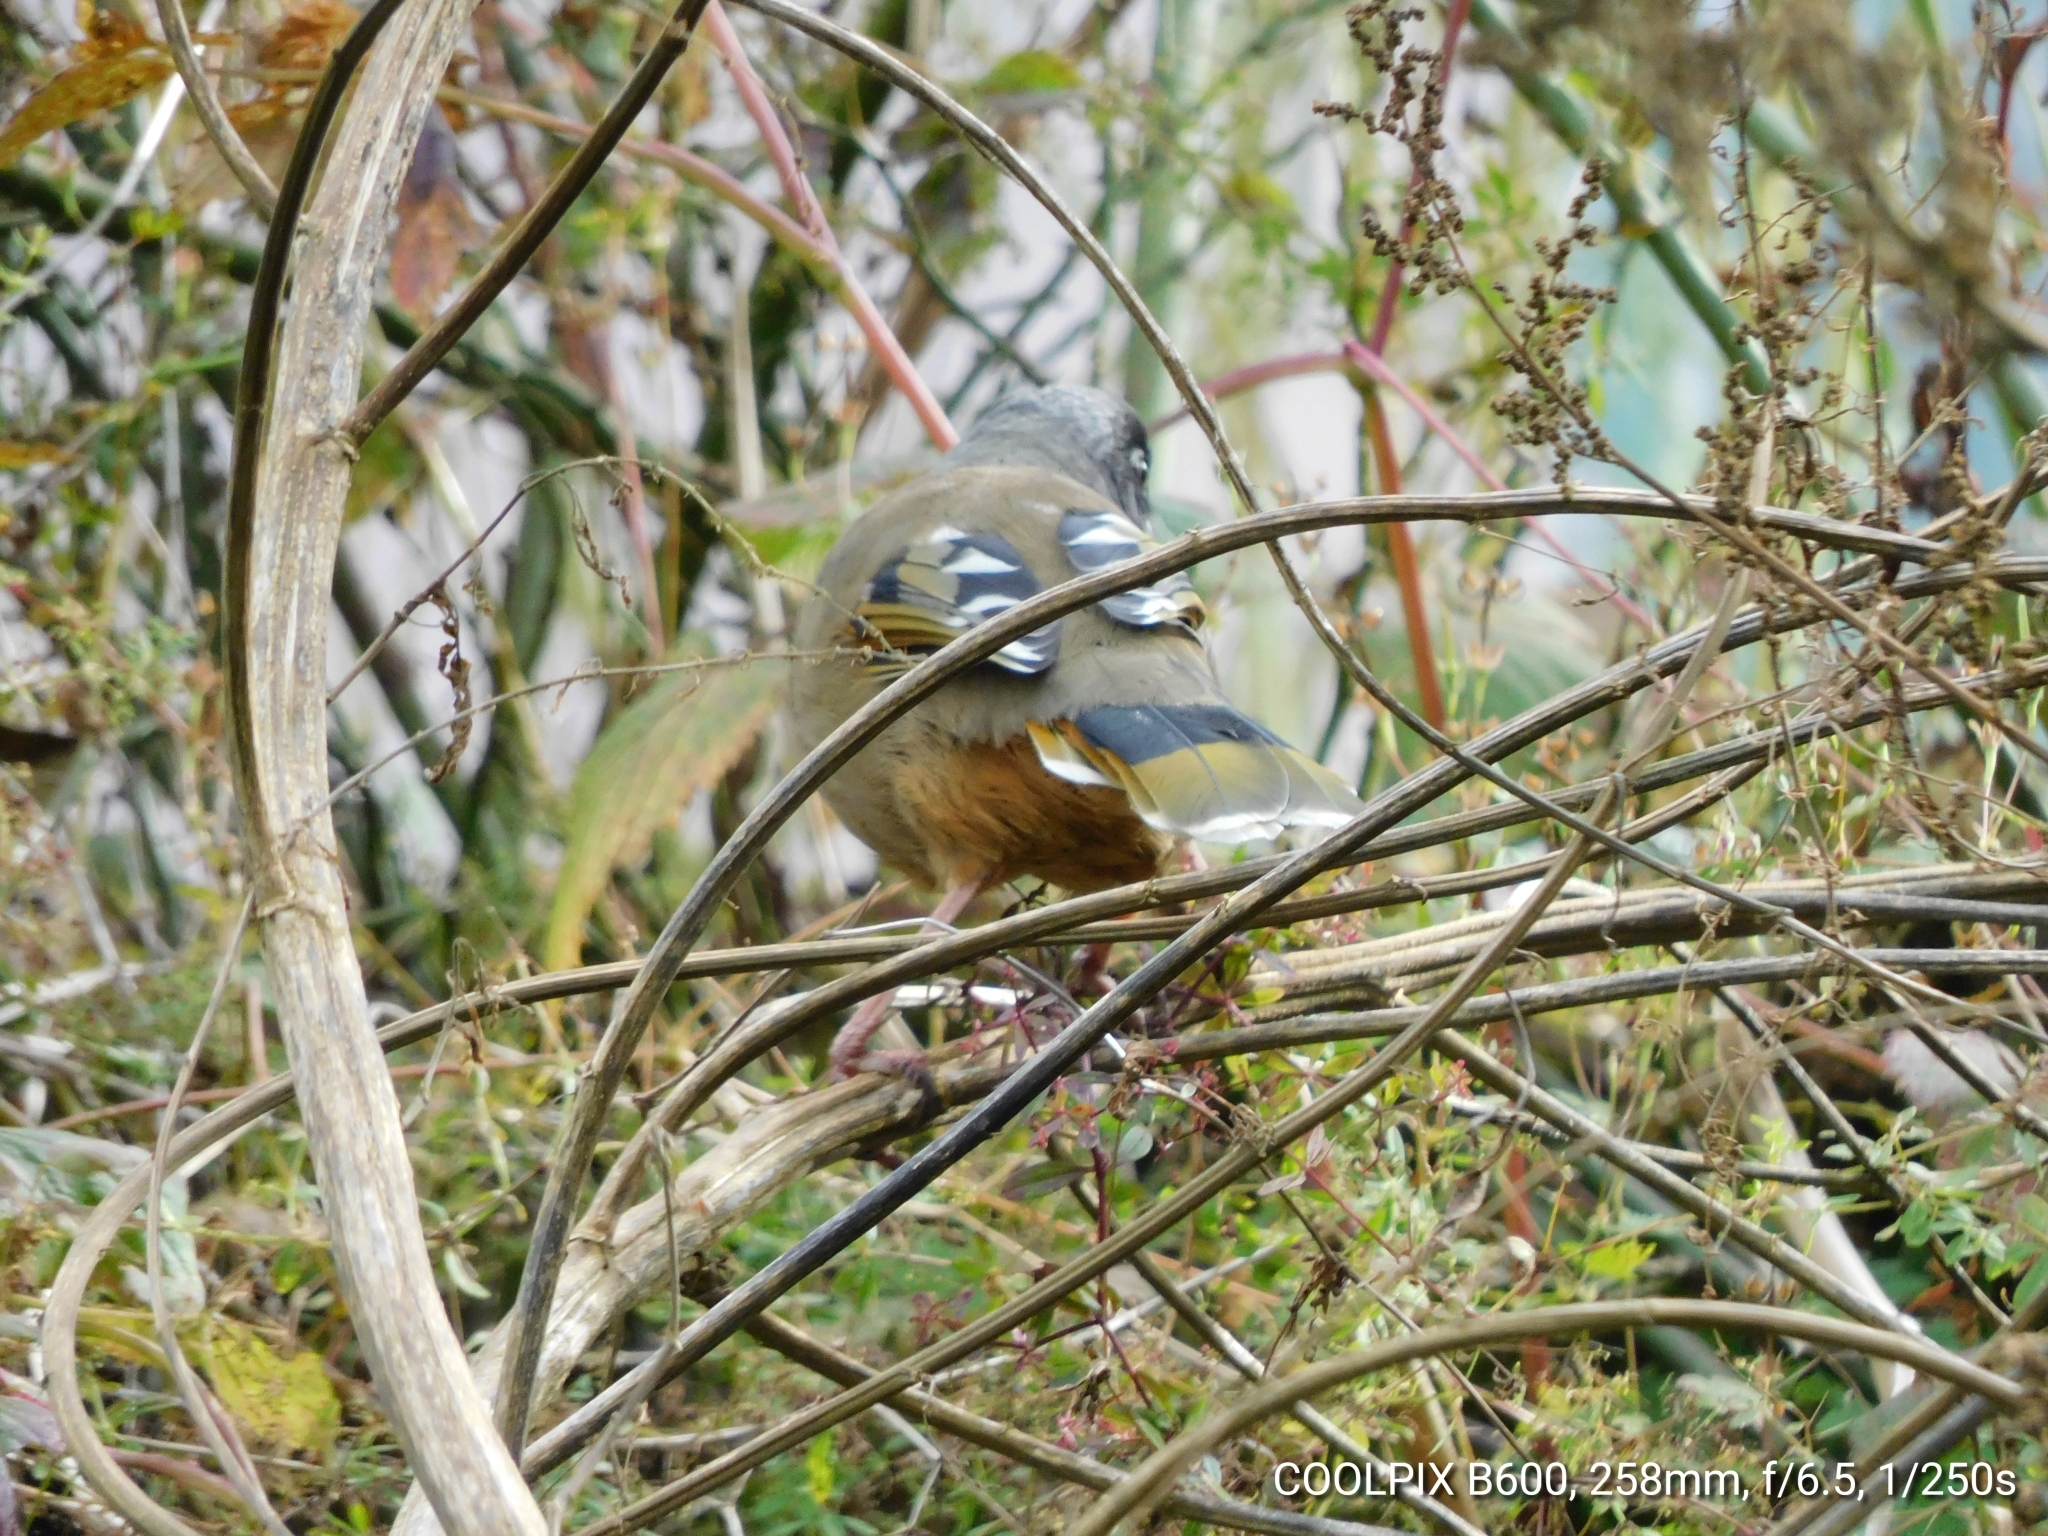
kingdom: Animalia
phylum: Chordata
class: Aves
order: Passeriformes
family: Leiothrichidae
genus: Trochalopteron
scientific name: Trochalopteron variegatum
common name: Variegated laughingthrush
